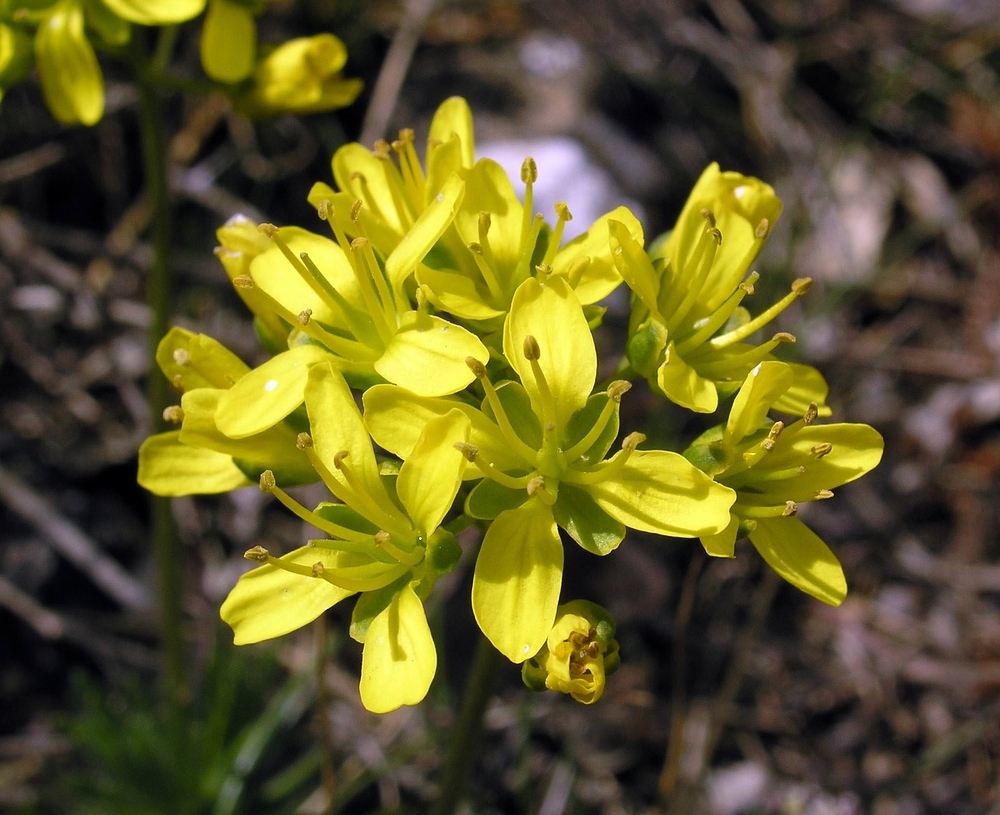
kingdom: Plantae
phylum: Tracheophyta
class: Magnoliopsida
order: Brassicales
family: Brassicaceae
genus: Draba
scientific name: Draba aizoides
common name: Yellow whitlowgrass
